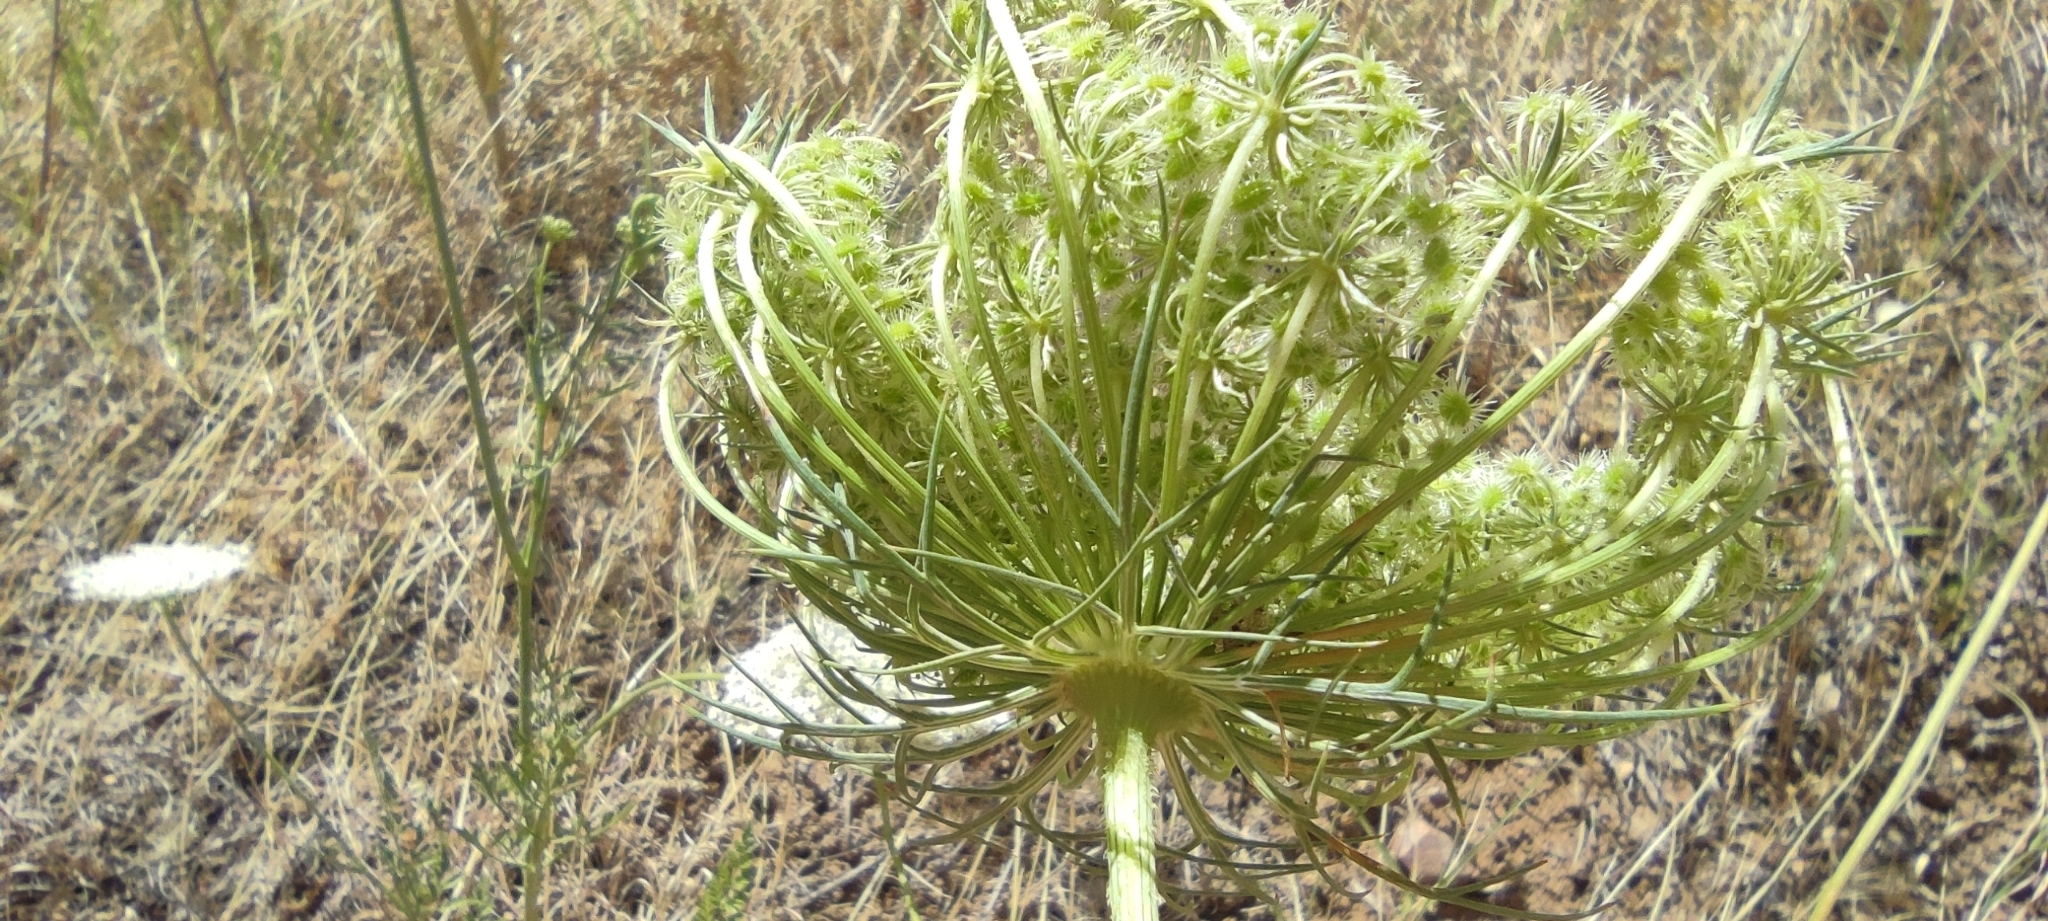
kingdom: Plantae
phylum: Tracheophyta
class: Magnoliopsida
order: Apiales
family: Apiaceae
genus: Daucus
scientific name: Daucus carota
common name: Wild carrot
